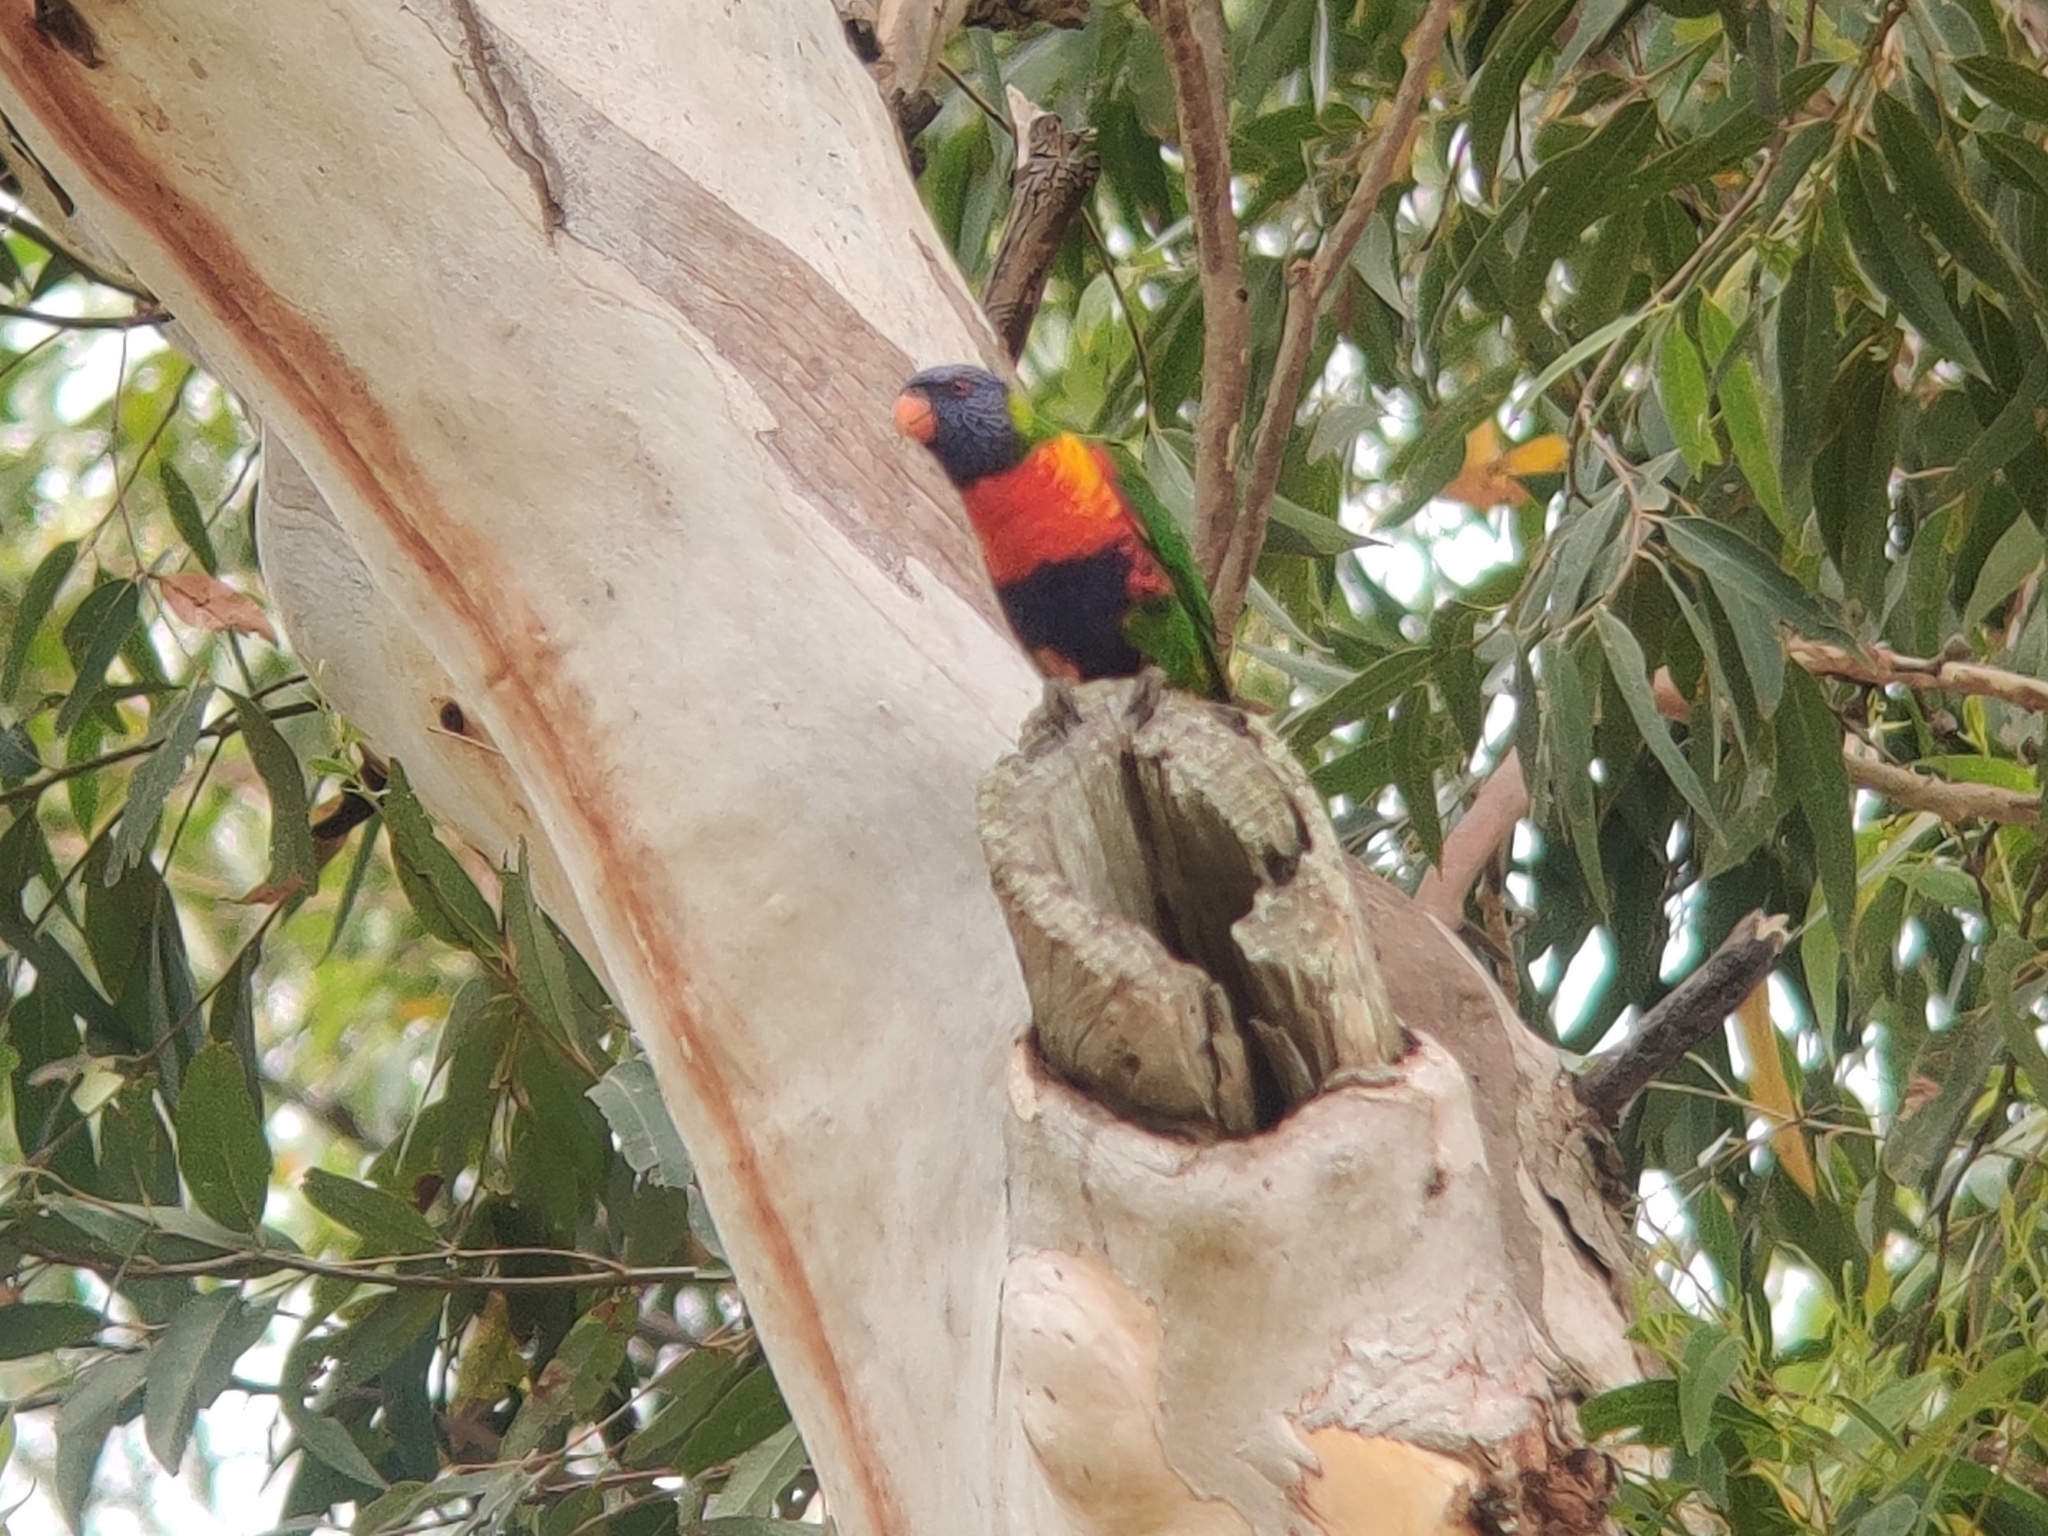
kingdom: Animalia
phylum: Chordata
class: Aves
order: Psittaciformes
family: Psittacidae
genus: Trichoglossus
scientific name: Trichoglossus haematodus
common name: Coconut lorikeet
